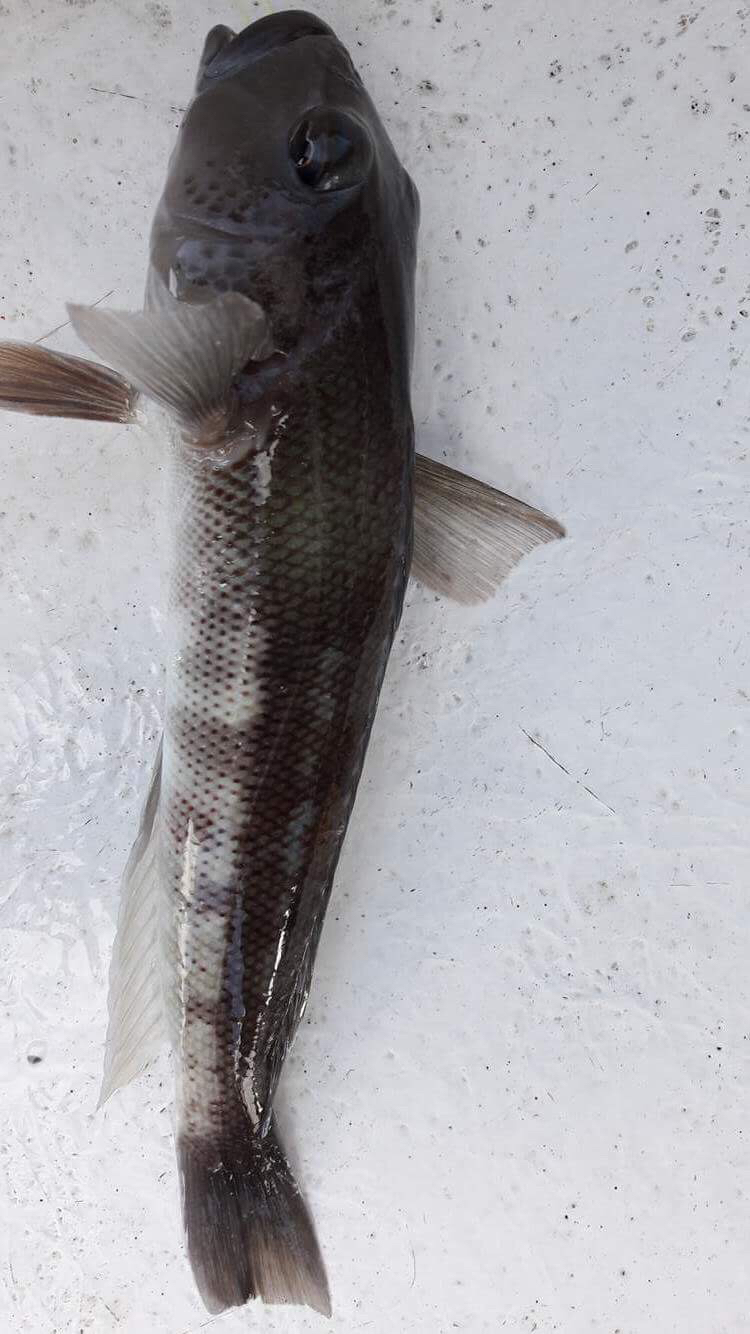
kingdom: Animalia
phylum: Chordata
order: Perciformes
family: Pinguipedidae
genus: Parapercis
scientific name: Parapercis colias
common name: Blue cod
